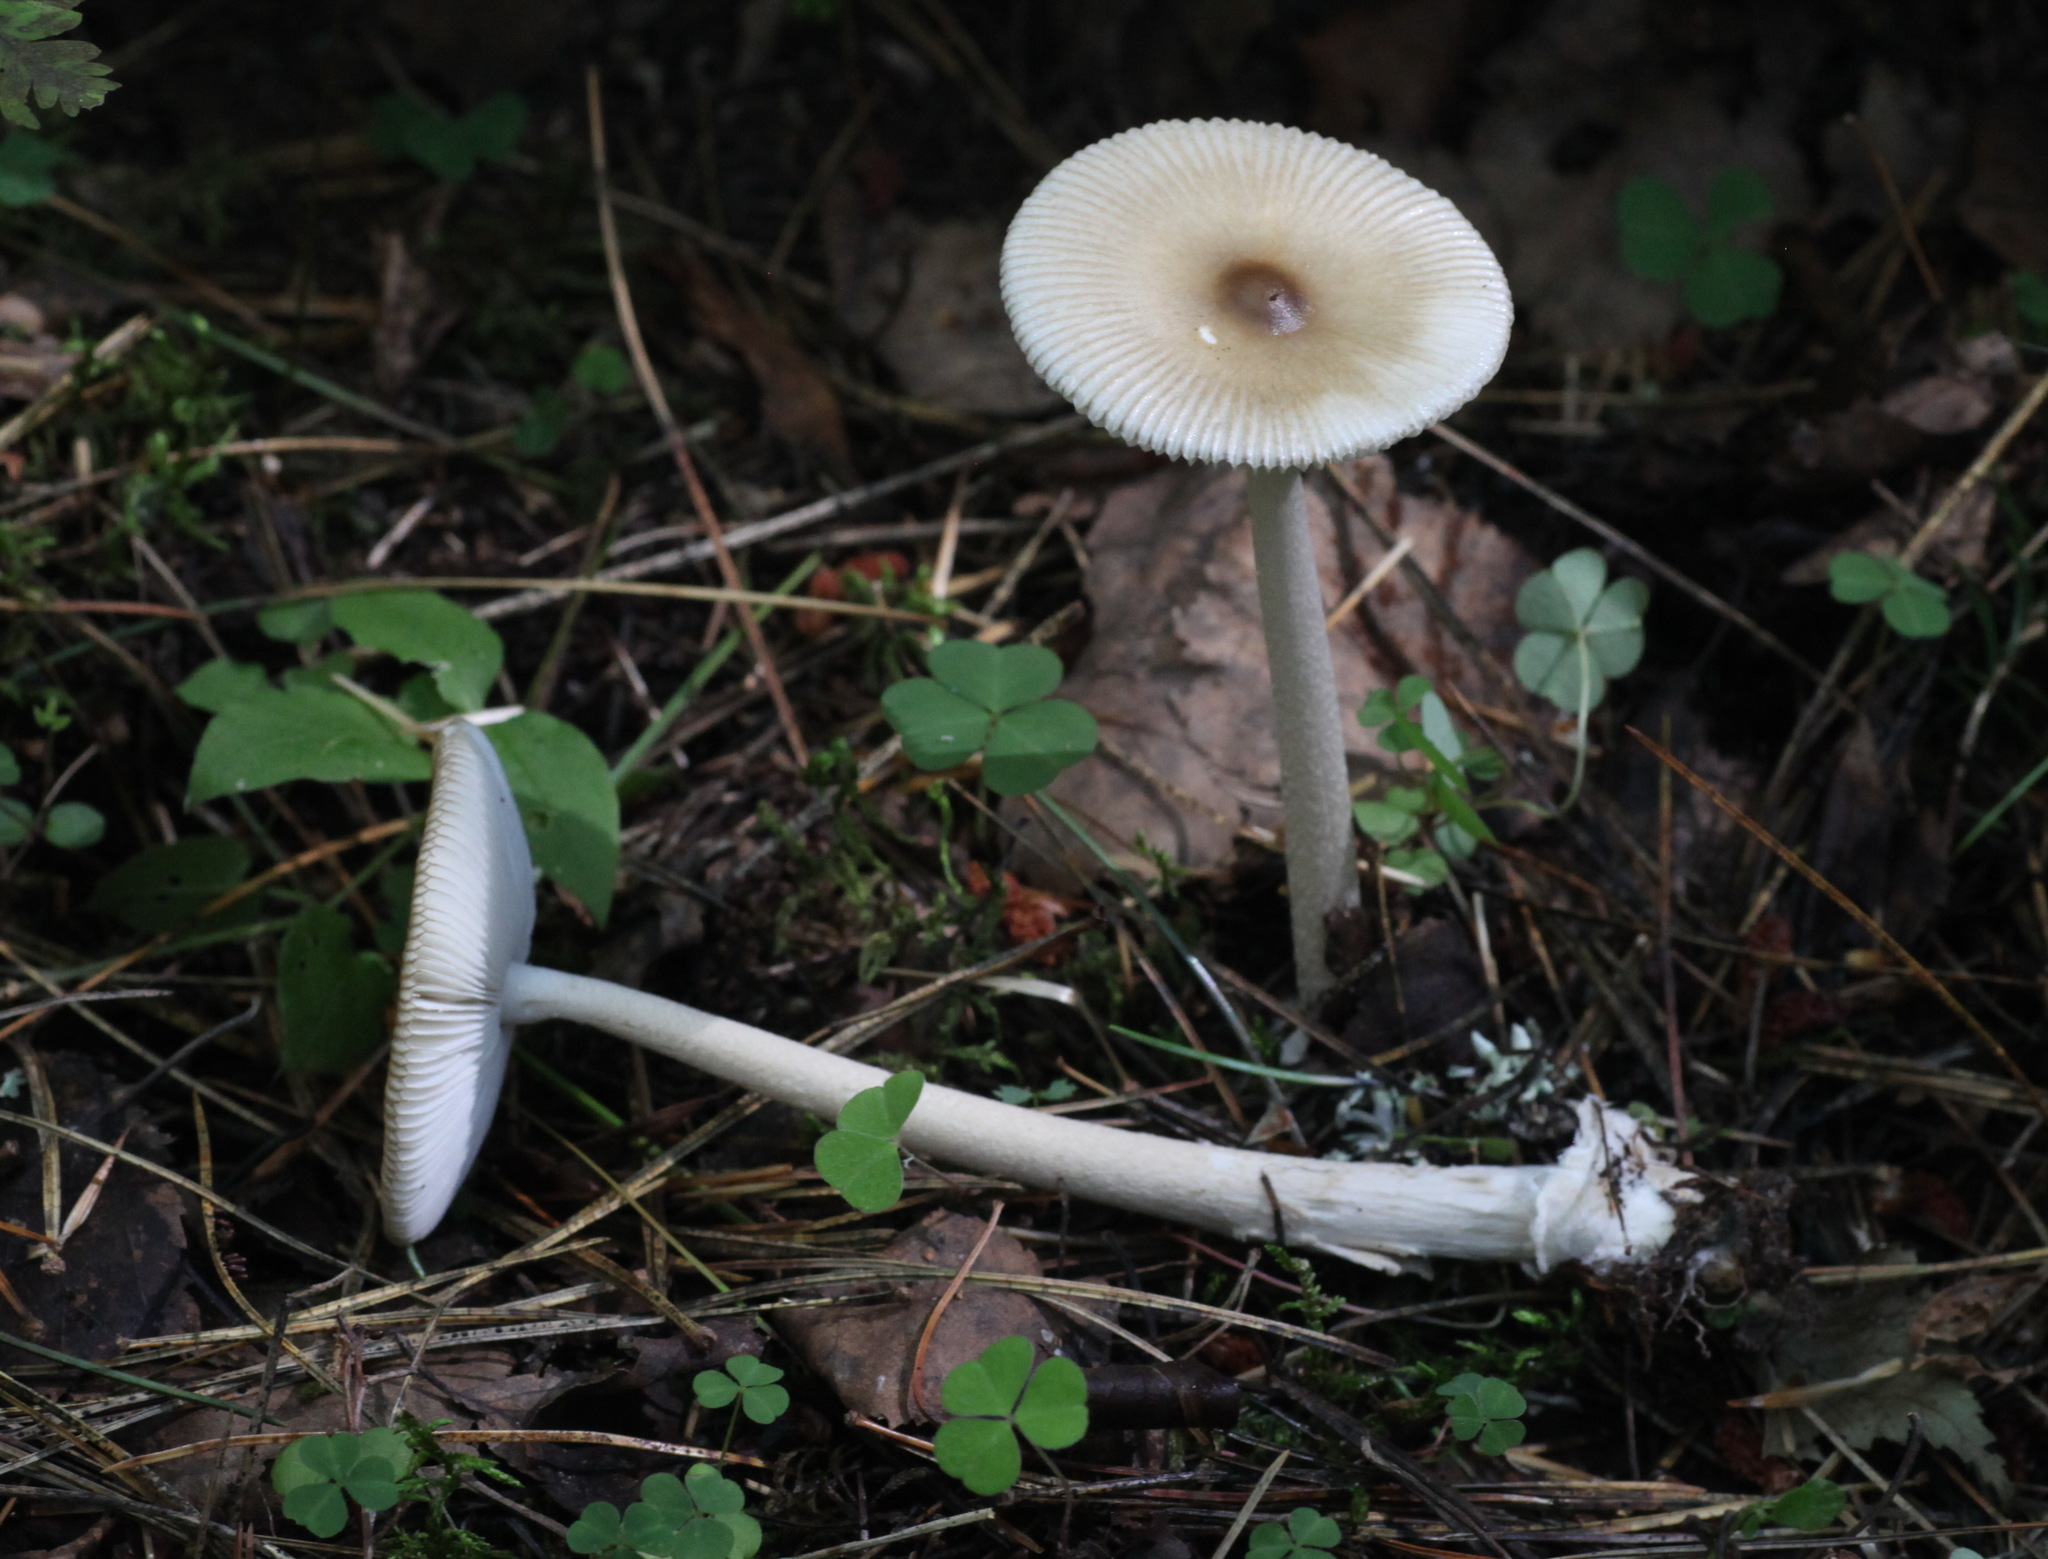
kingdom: Fungi
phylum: Basidiomycota
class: Agaricomycetes
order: Agaricales
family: Amanitaceae
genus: Amanita
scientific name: Amanita battarrae
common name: Banded amanita
